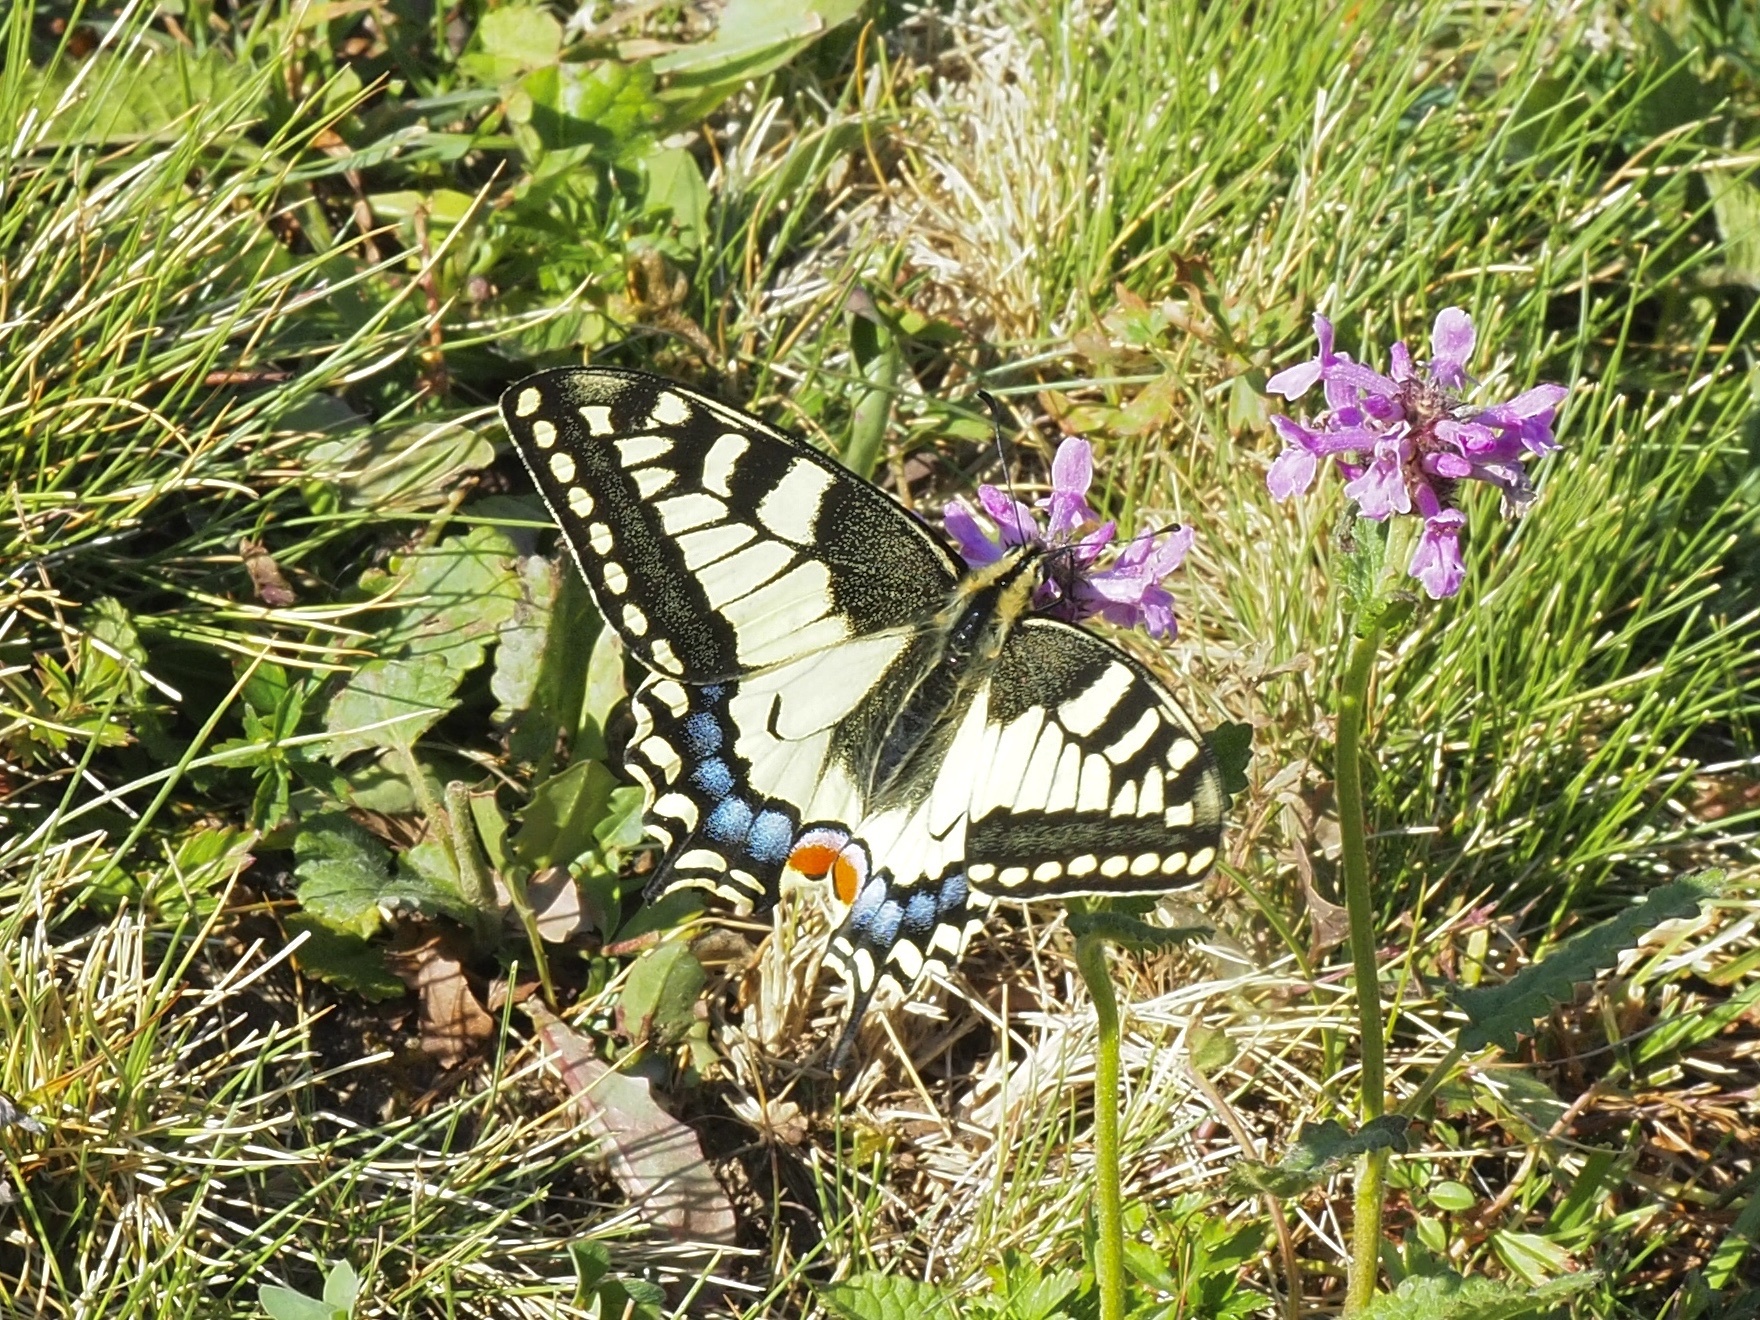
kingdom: Animalia
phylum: Arthropoda
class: Insecta
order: Lepidoptera
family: Papilionidae
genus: Papilio
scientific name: Papilio machaon
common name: Swallowtail
